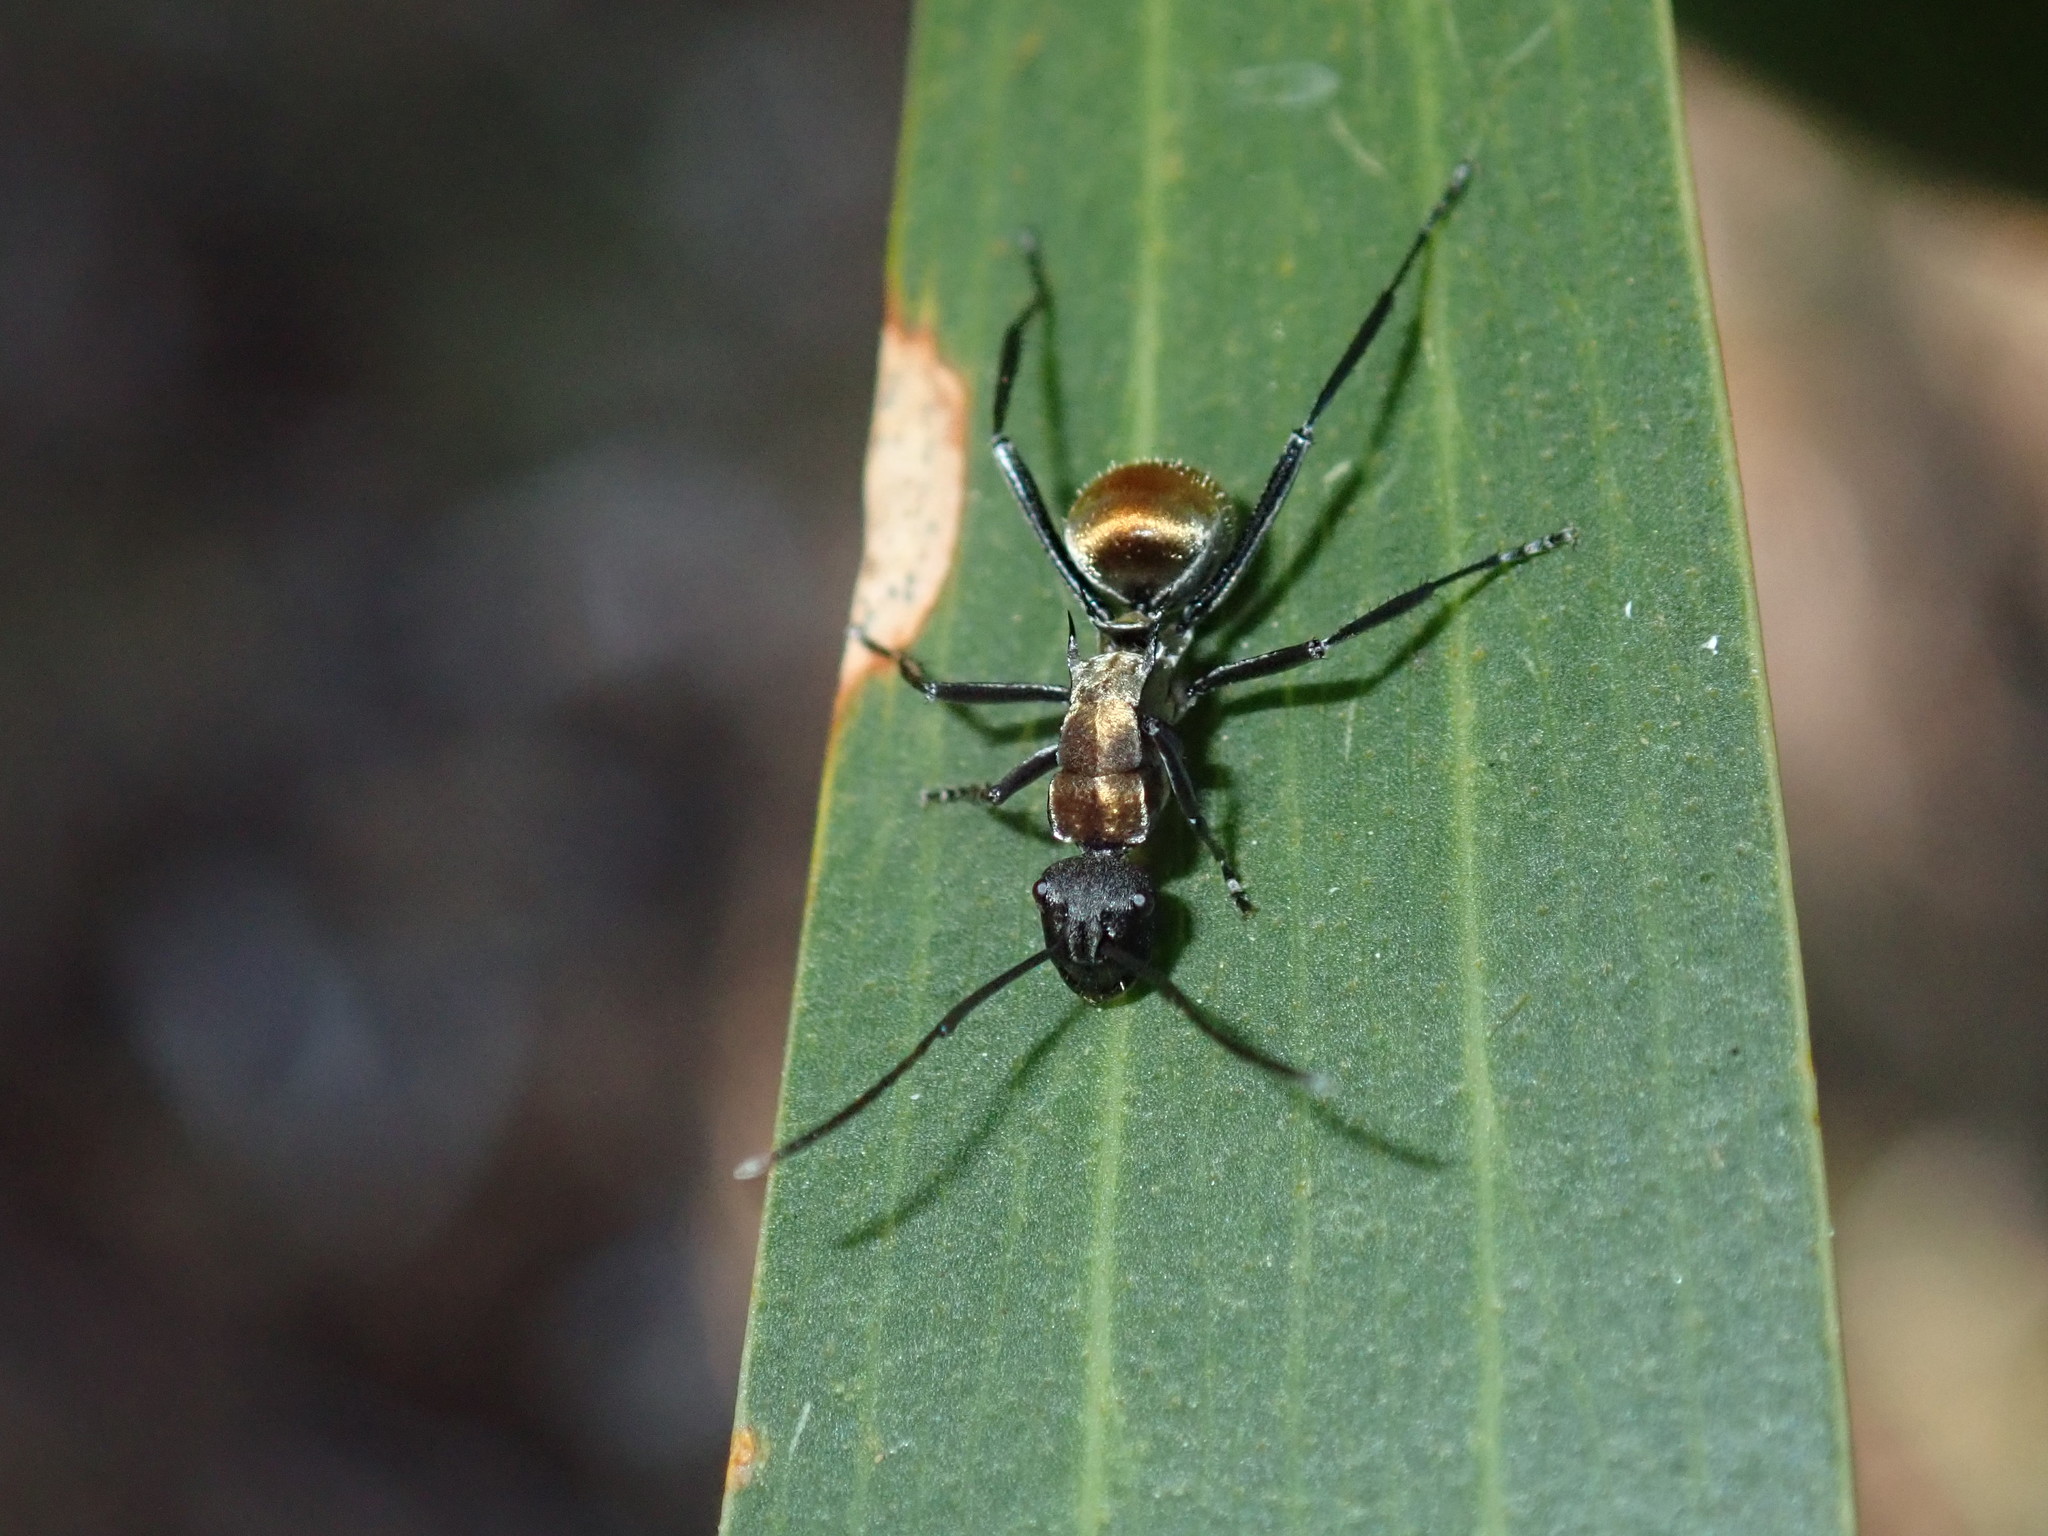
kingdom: Animalia
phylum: Arthropoda
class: Insecta
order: Hymenoptera
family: Formicidae
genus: Polyrhachis
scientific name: Polyrhachis ammon
